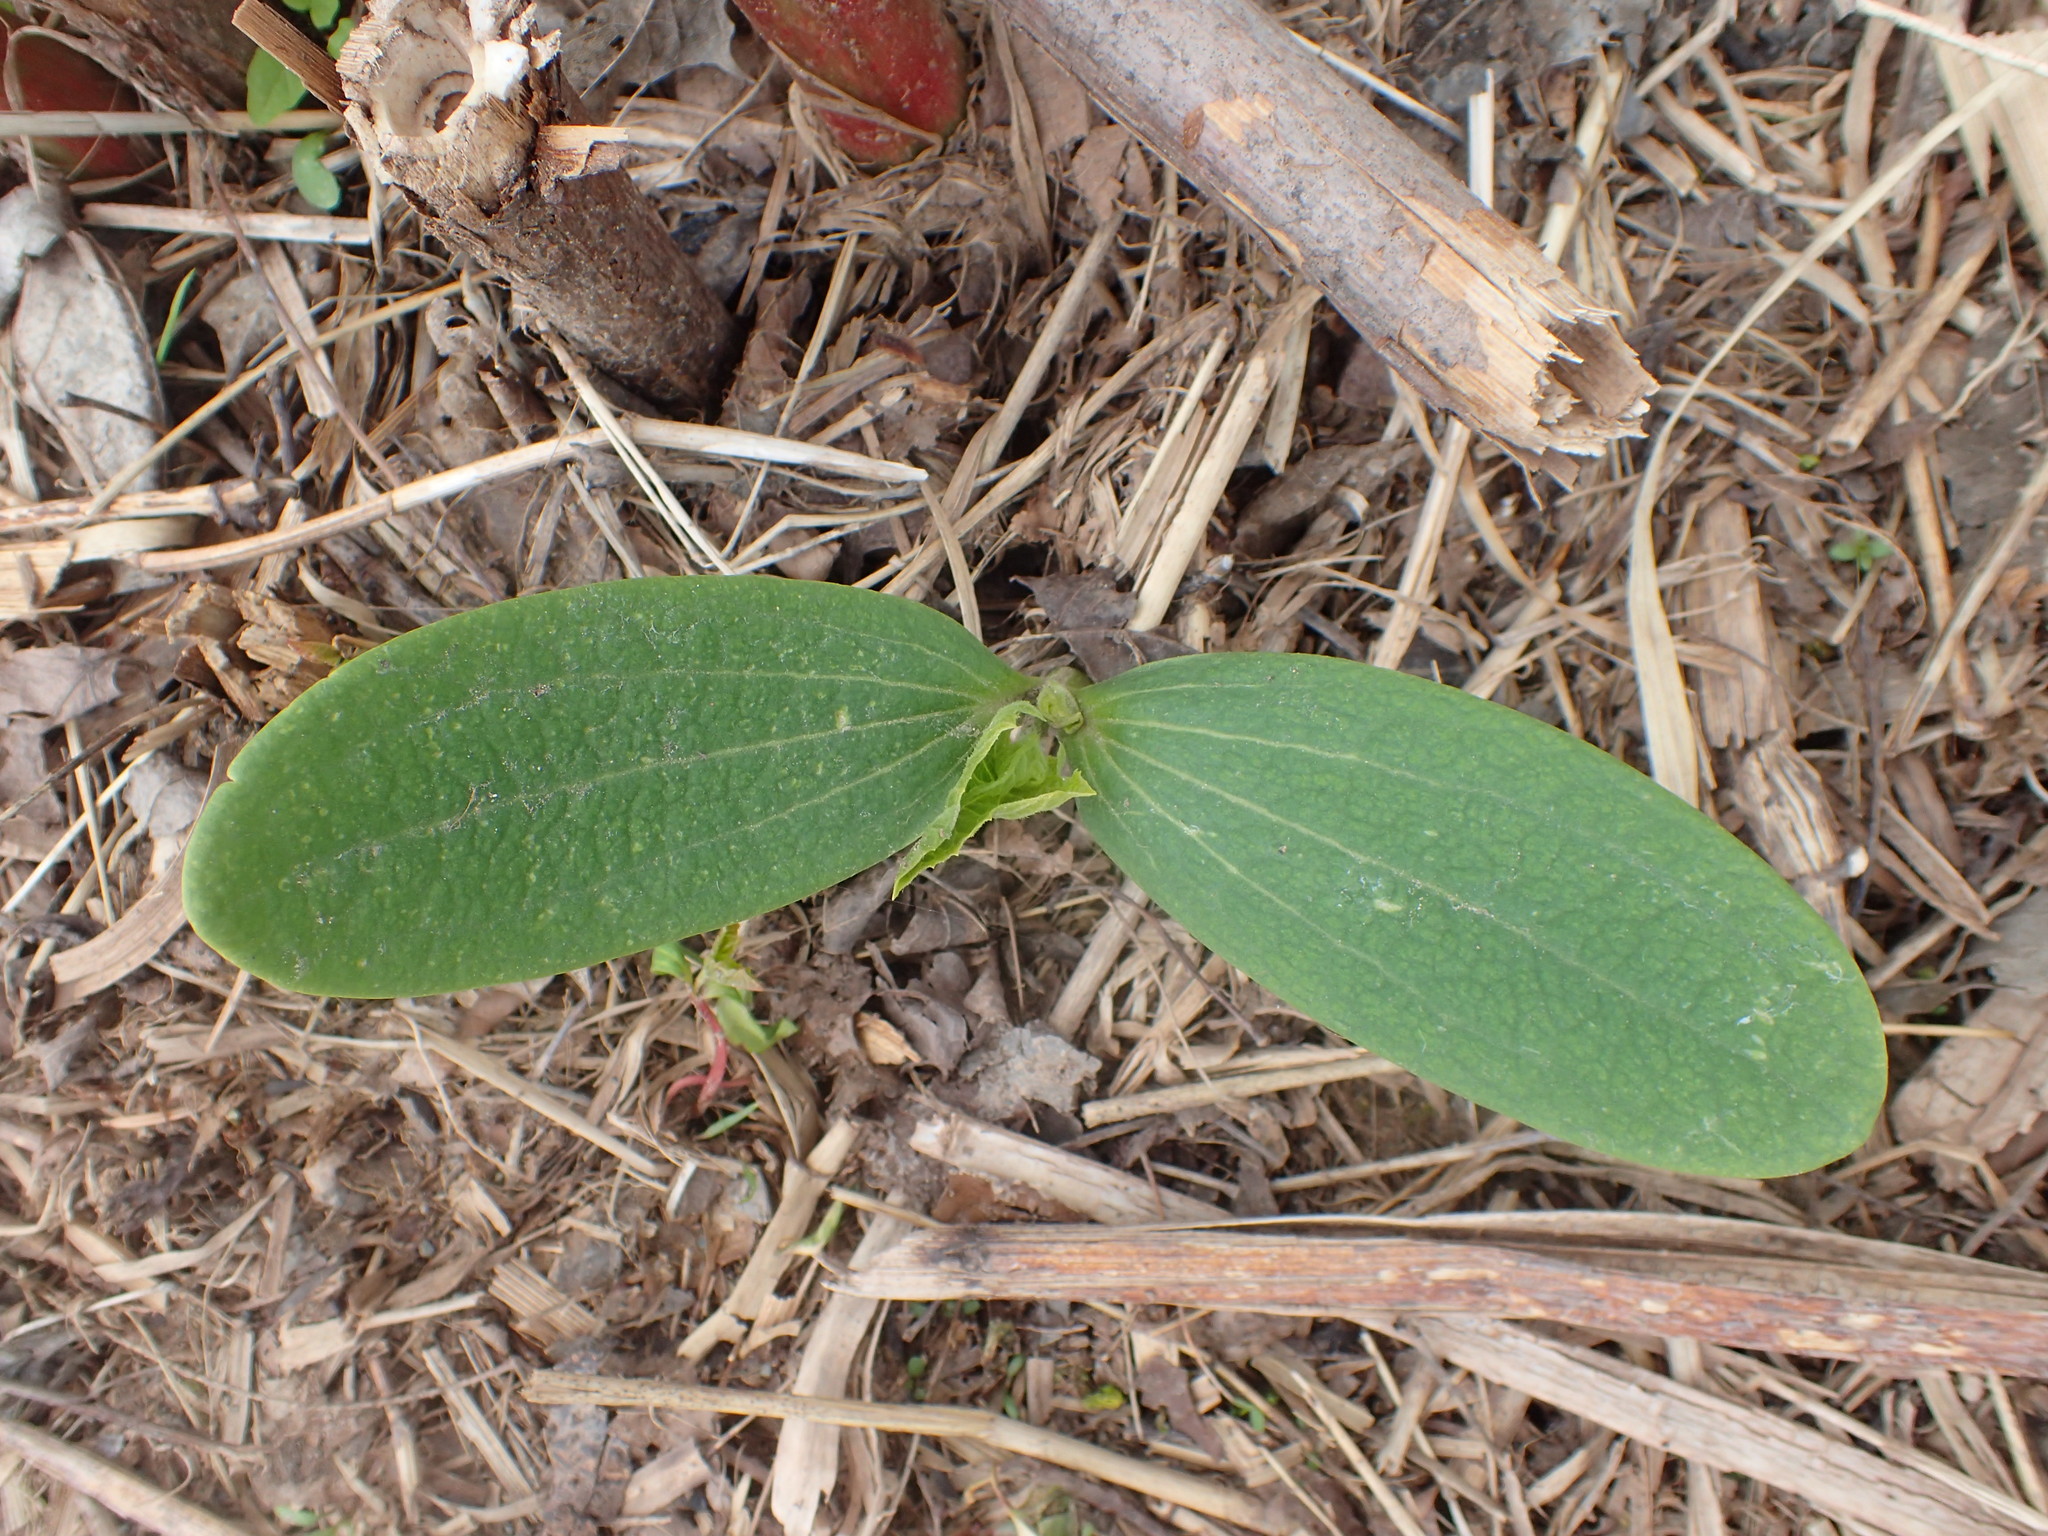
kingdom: Plantae
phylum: Tracheophyta
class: Magnoliopsida
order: Cucurbitales
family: Cucurbitaceae
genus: Echinocystis
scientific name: Echinocystis lobata
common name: Wild cucumber
